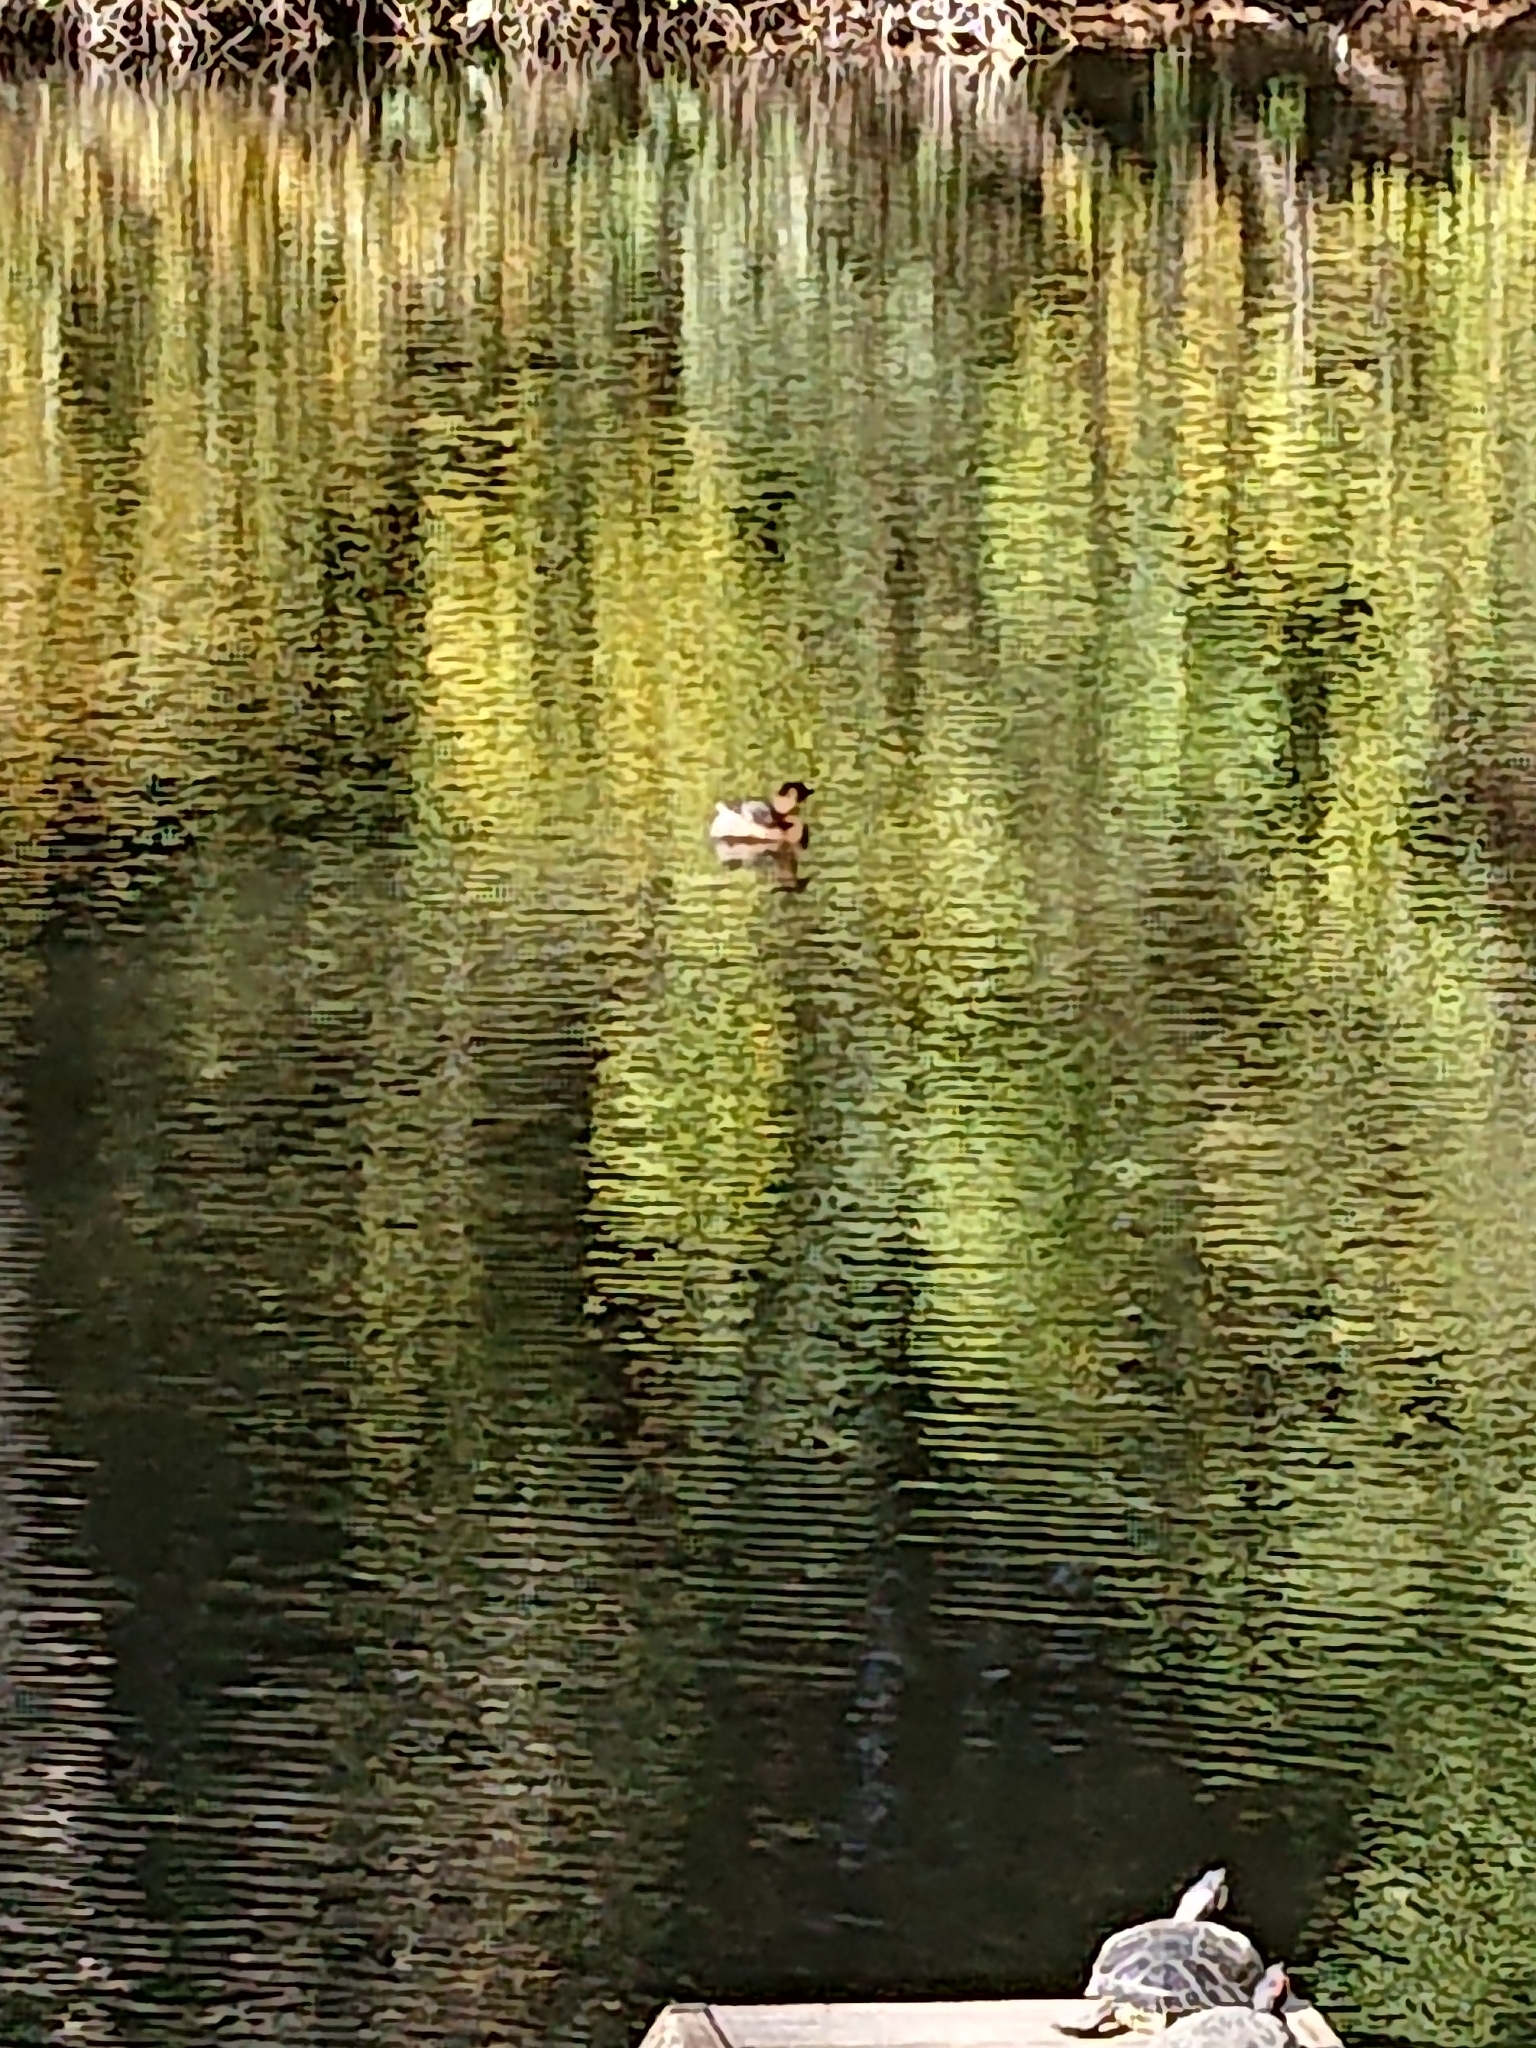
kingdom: Animalia
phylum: Chordata
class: Aves
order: Podicipediformes
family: Podicipedidae
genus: Podilymbus
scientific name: Podilymbus podiceps
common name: Pied-billed grebe
